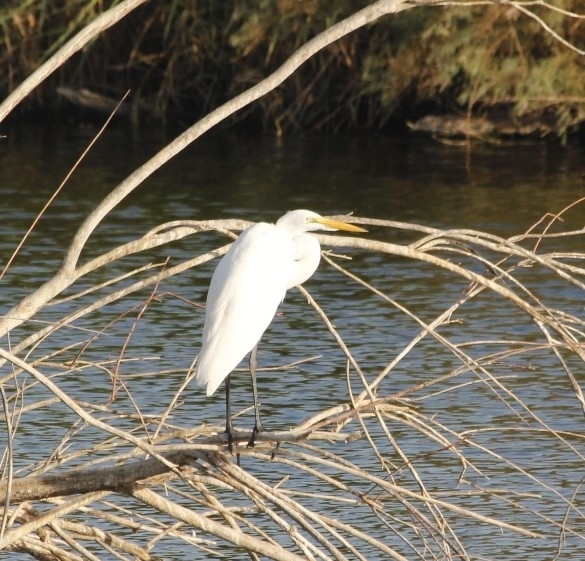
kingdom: Animalia
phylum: Chordata
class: Aves
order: Pelecaniformes
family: Ardeidae
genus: Ardea
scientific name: Ardea alba
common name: Great egret
